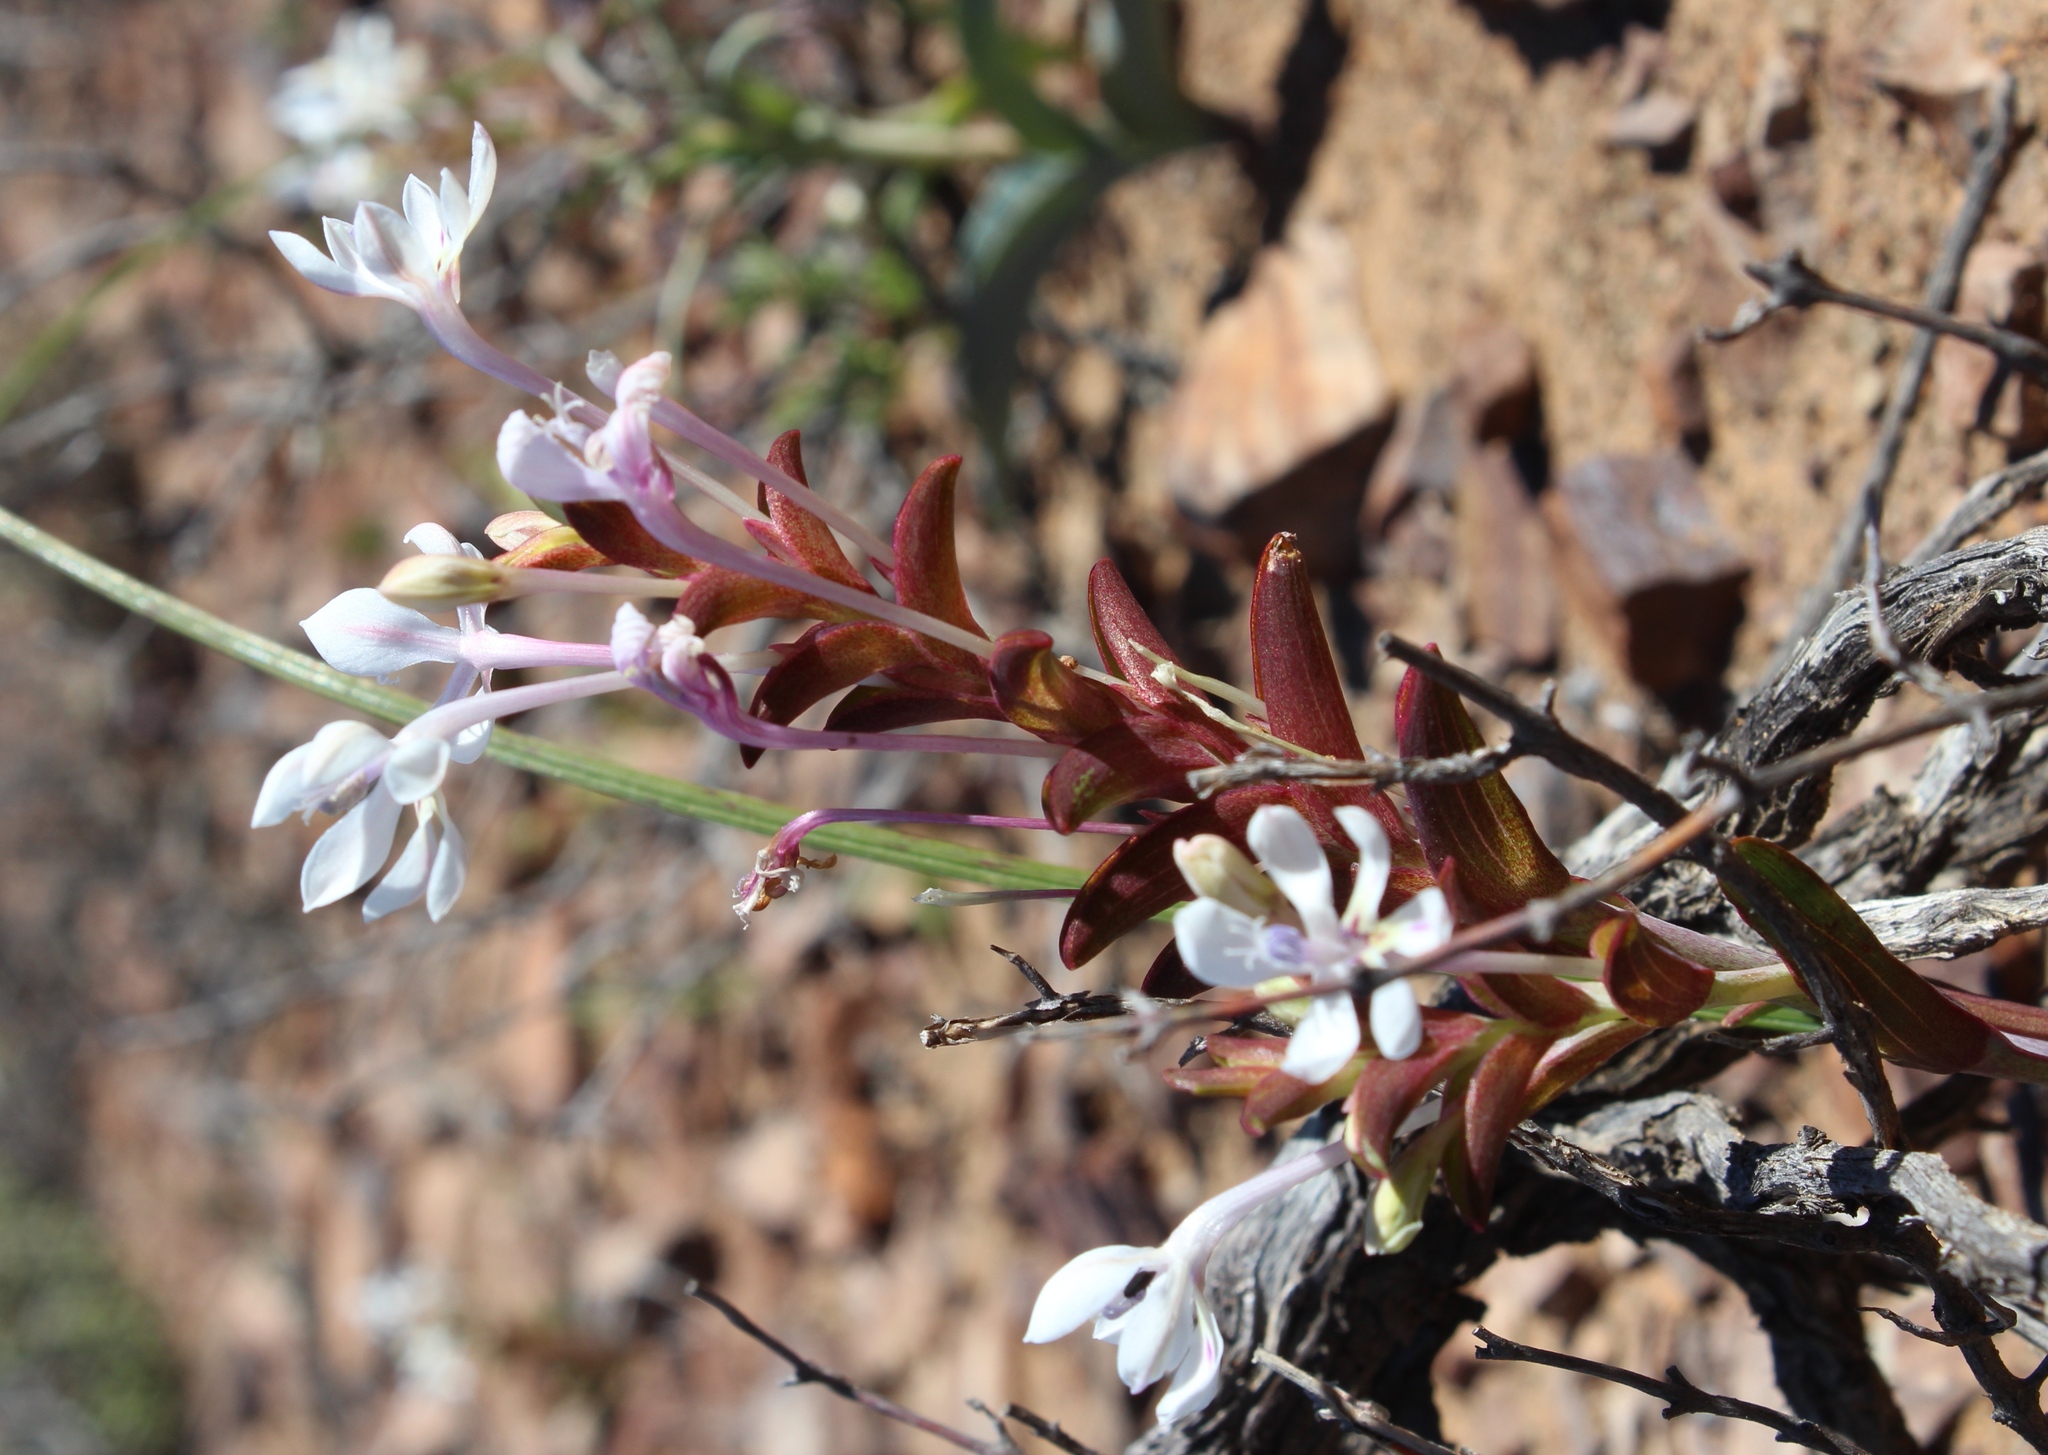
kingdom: Plantae
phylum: Tracheophyta
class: Liliopsida
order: Asparagales
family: Iridaceae
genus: Lapeirousia
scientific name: Lapeirousia pyramidalis
